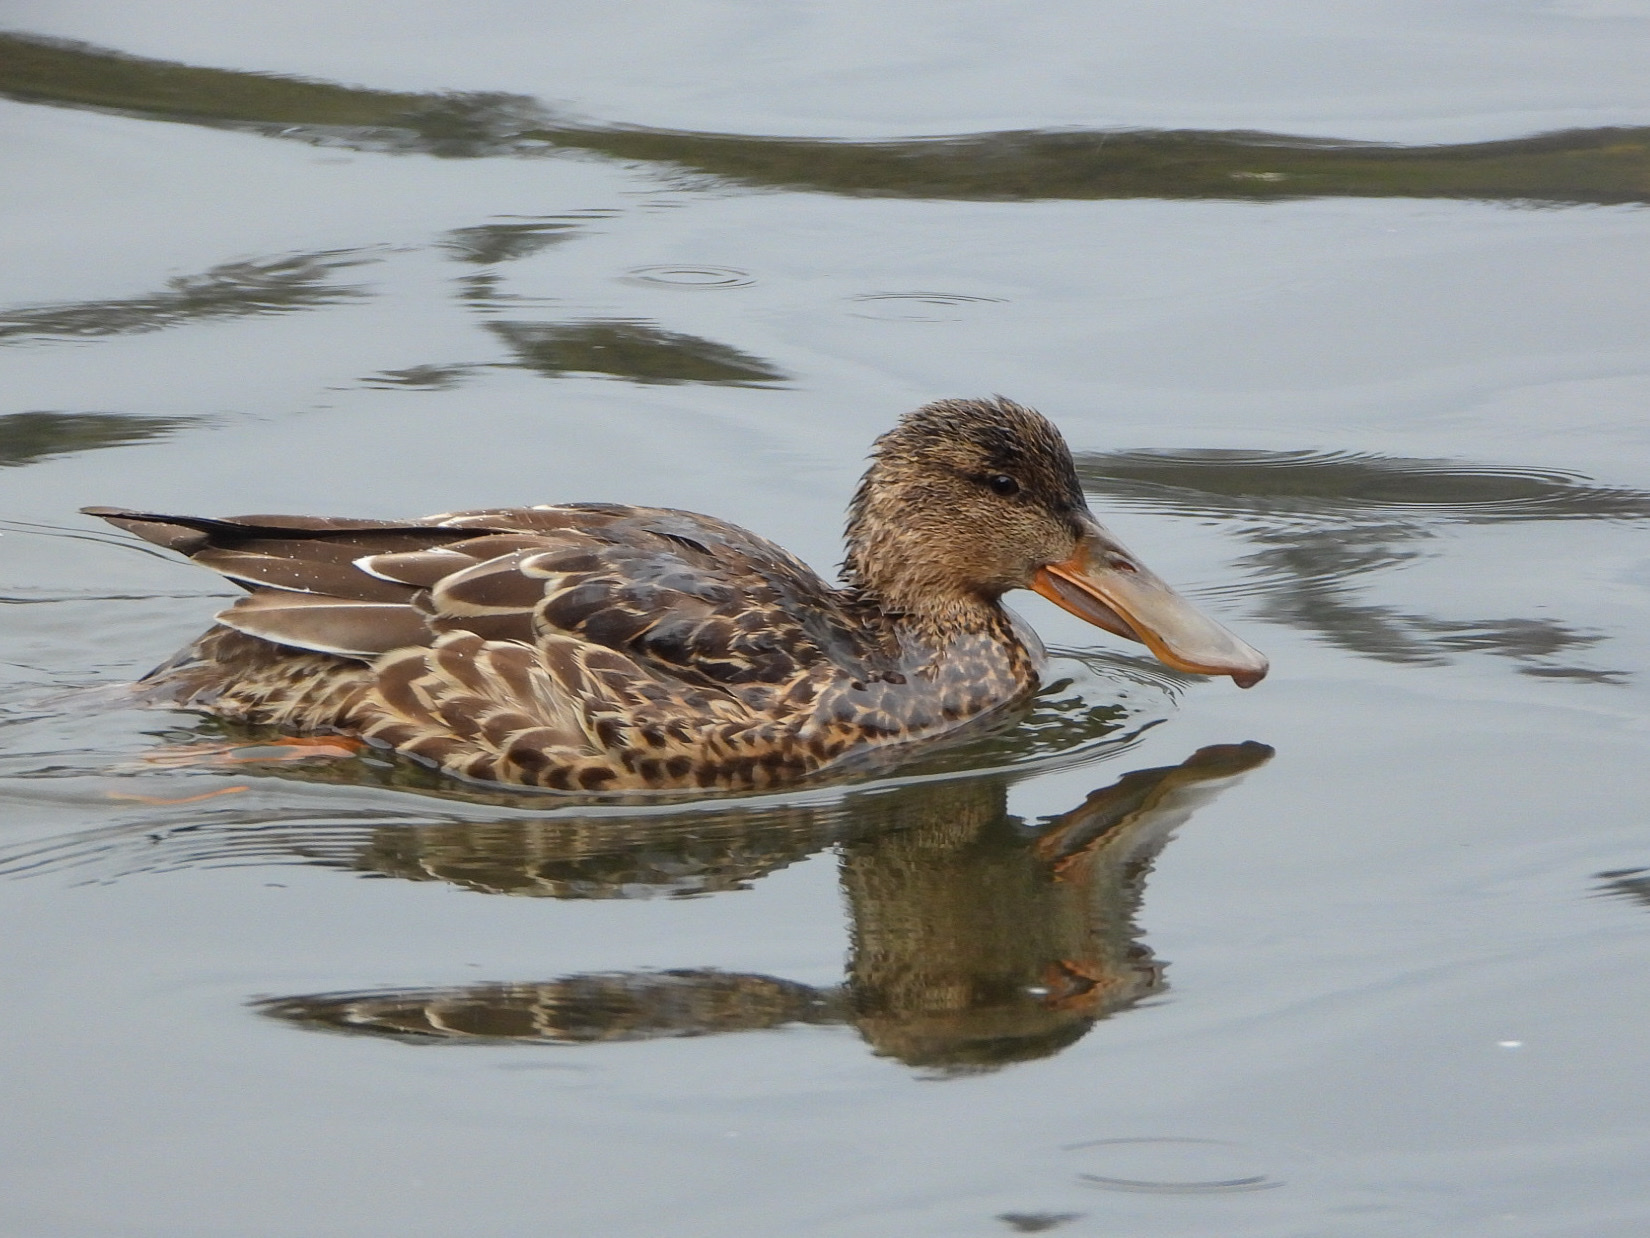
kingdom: Animalia
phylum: Chordata
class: Aves
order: Anseriformes
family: Anatidae
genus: Spatula
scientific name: Spatula clypeata
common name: Northern shoveler
